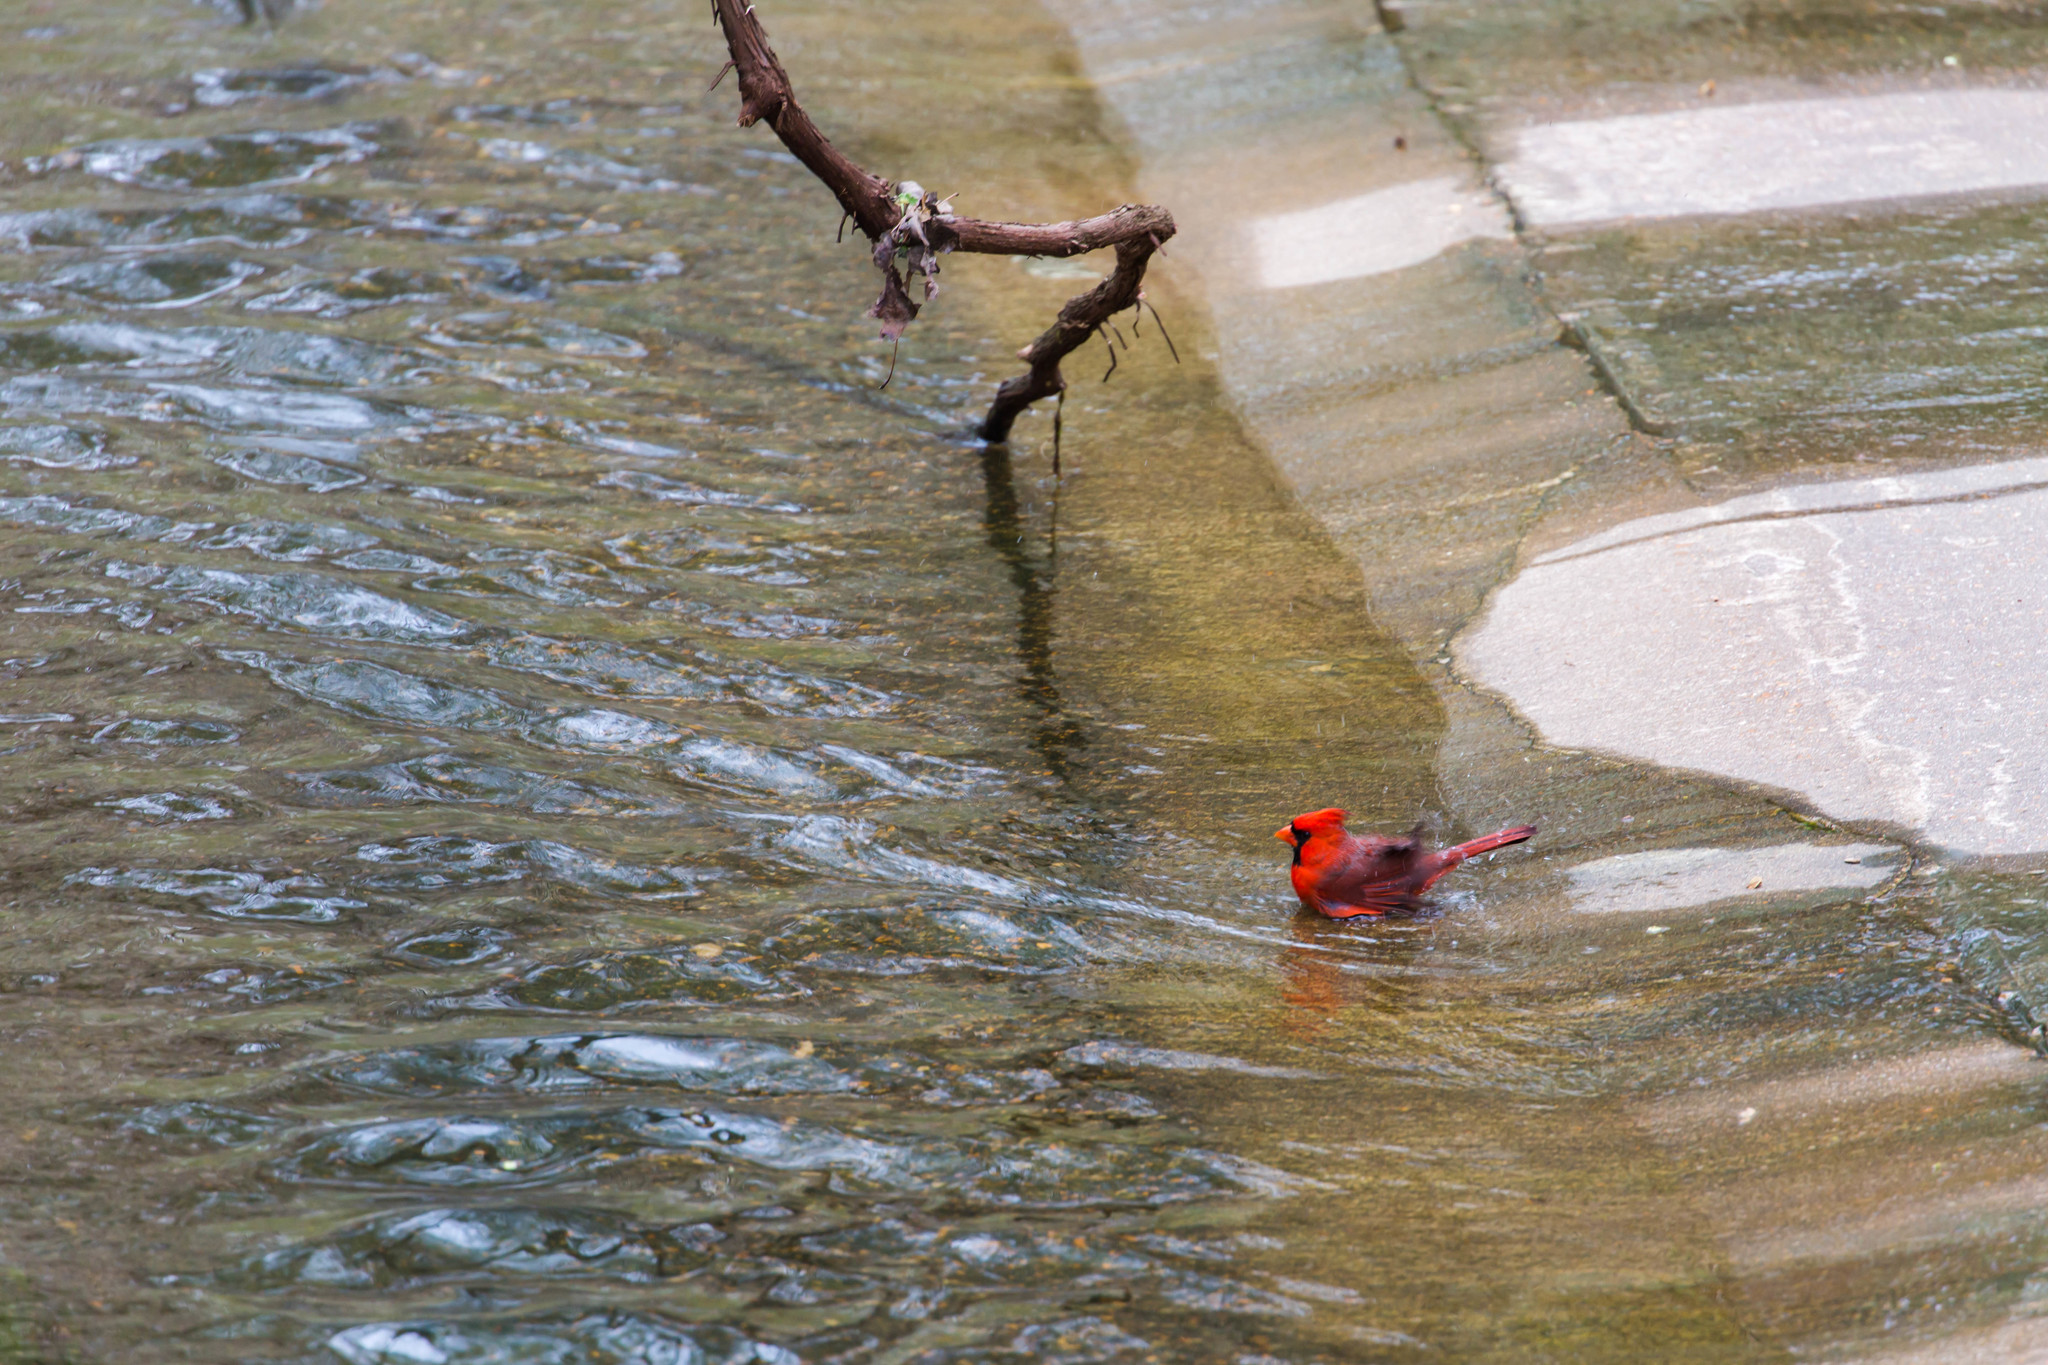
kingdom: Animalia
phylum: Chordata
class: Aves
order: Passeriformes
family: Cardinalidae
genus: Cardinalis
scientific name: Cardinalis cardinalis
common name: Northern cardinal
